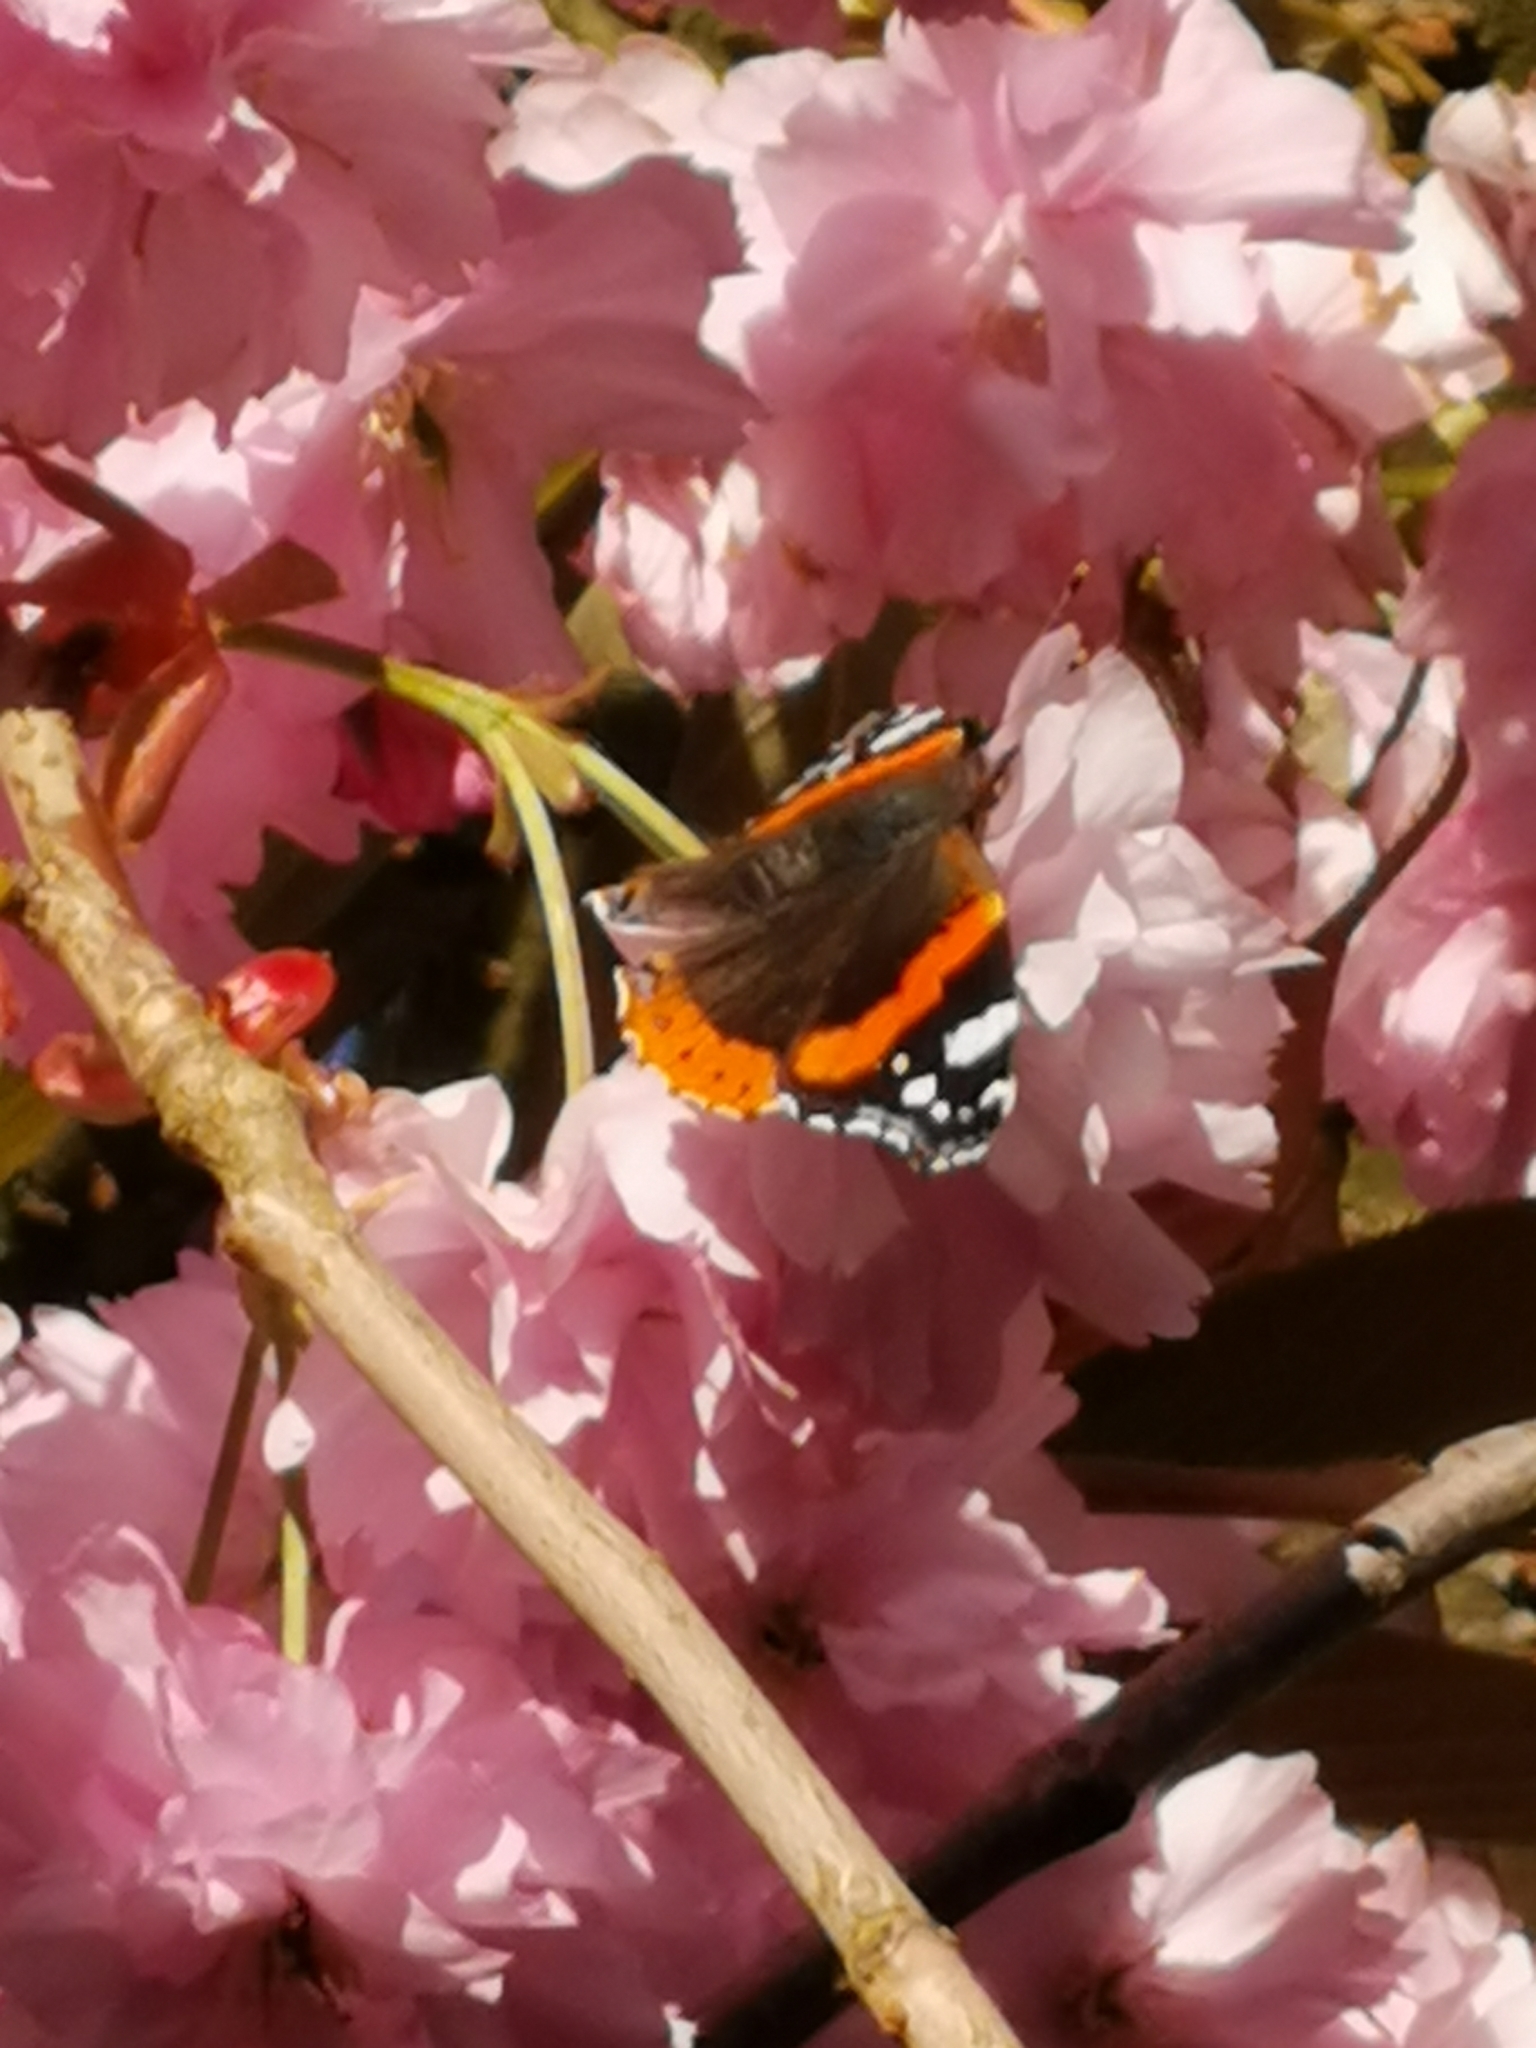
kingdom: Animalia
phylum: Arthropoda
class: Insecta
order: Lepidoptera
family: Nymphalidae
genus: Vanessa
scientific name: Vanessa atalanta
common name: Red admiral
